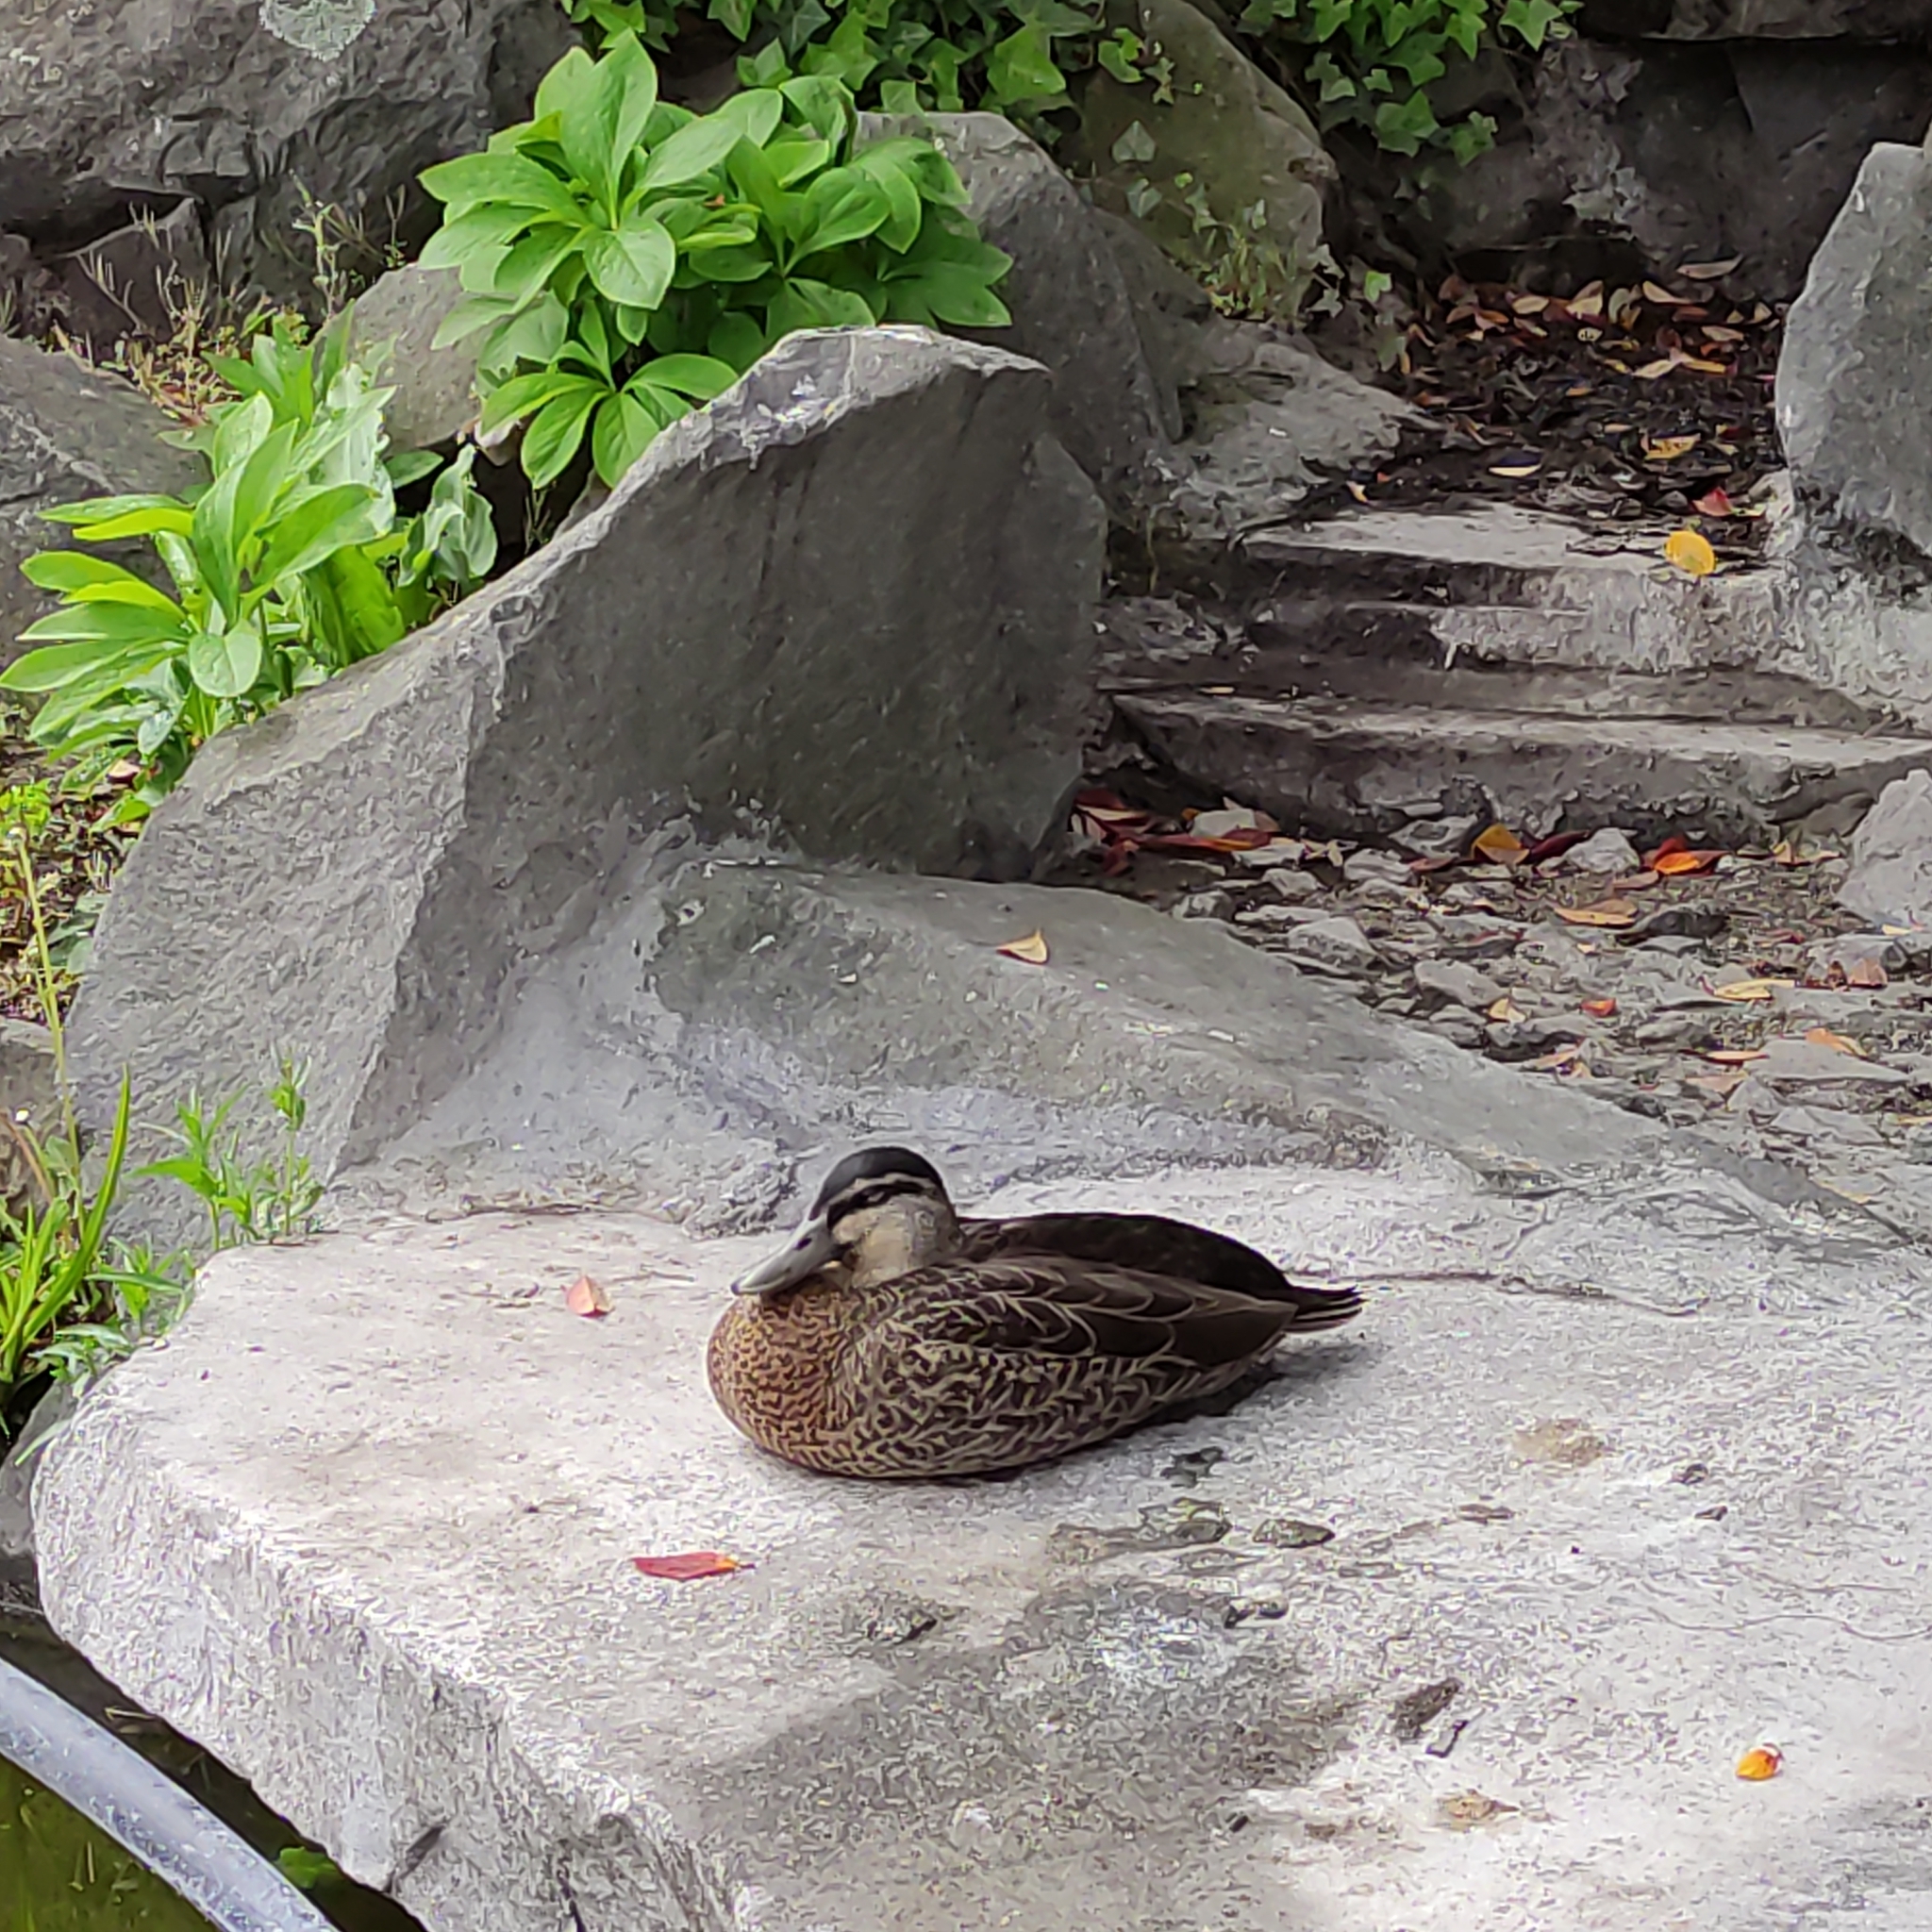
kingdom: Animalia
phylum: Chordata
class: Aves
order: Anseriformes
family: Anatidae
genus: Anas
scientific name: Anas
